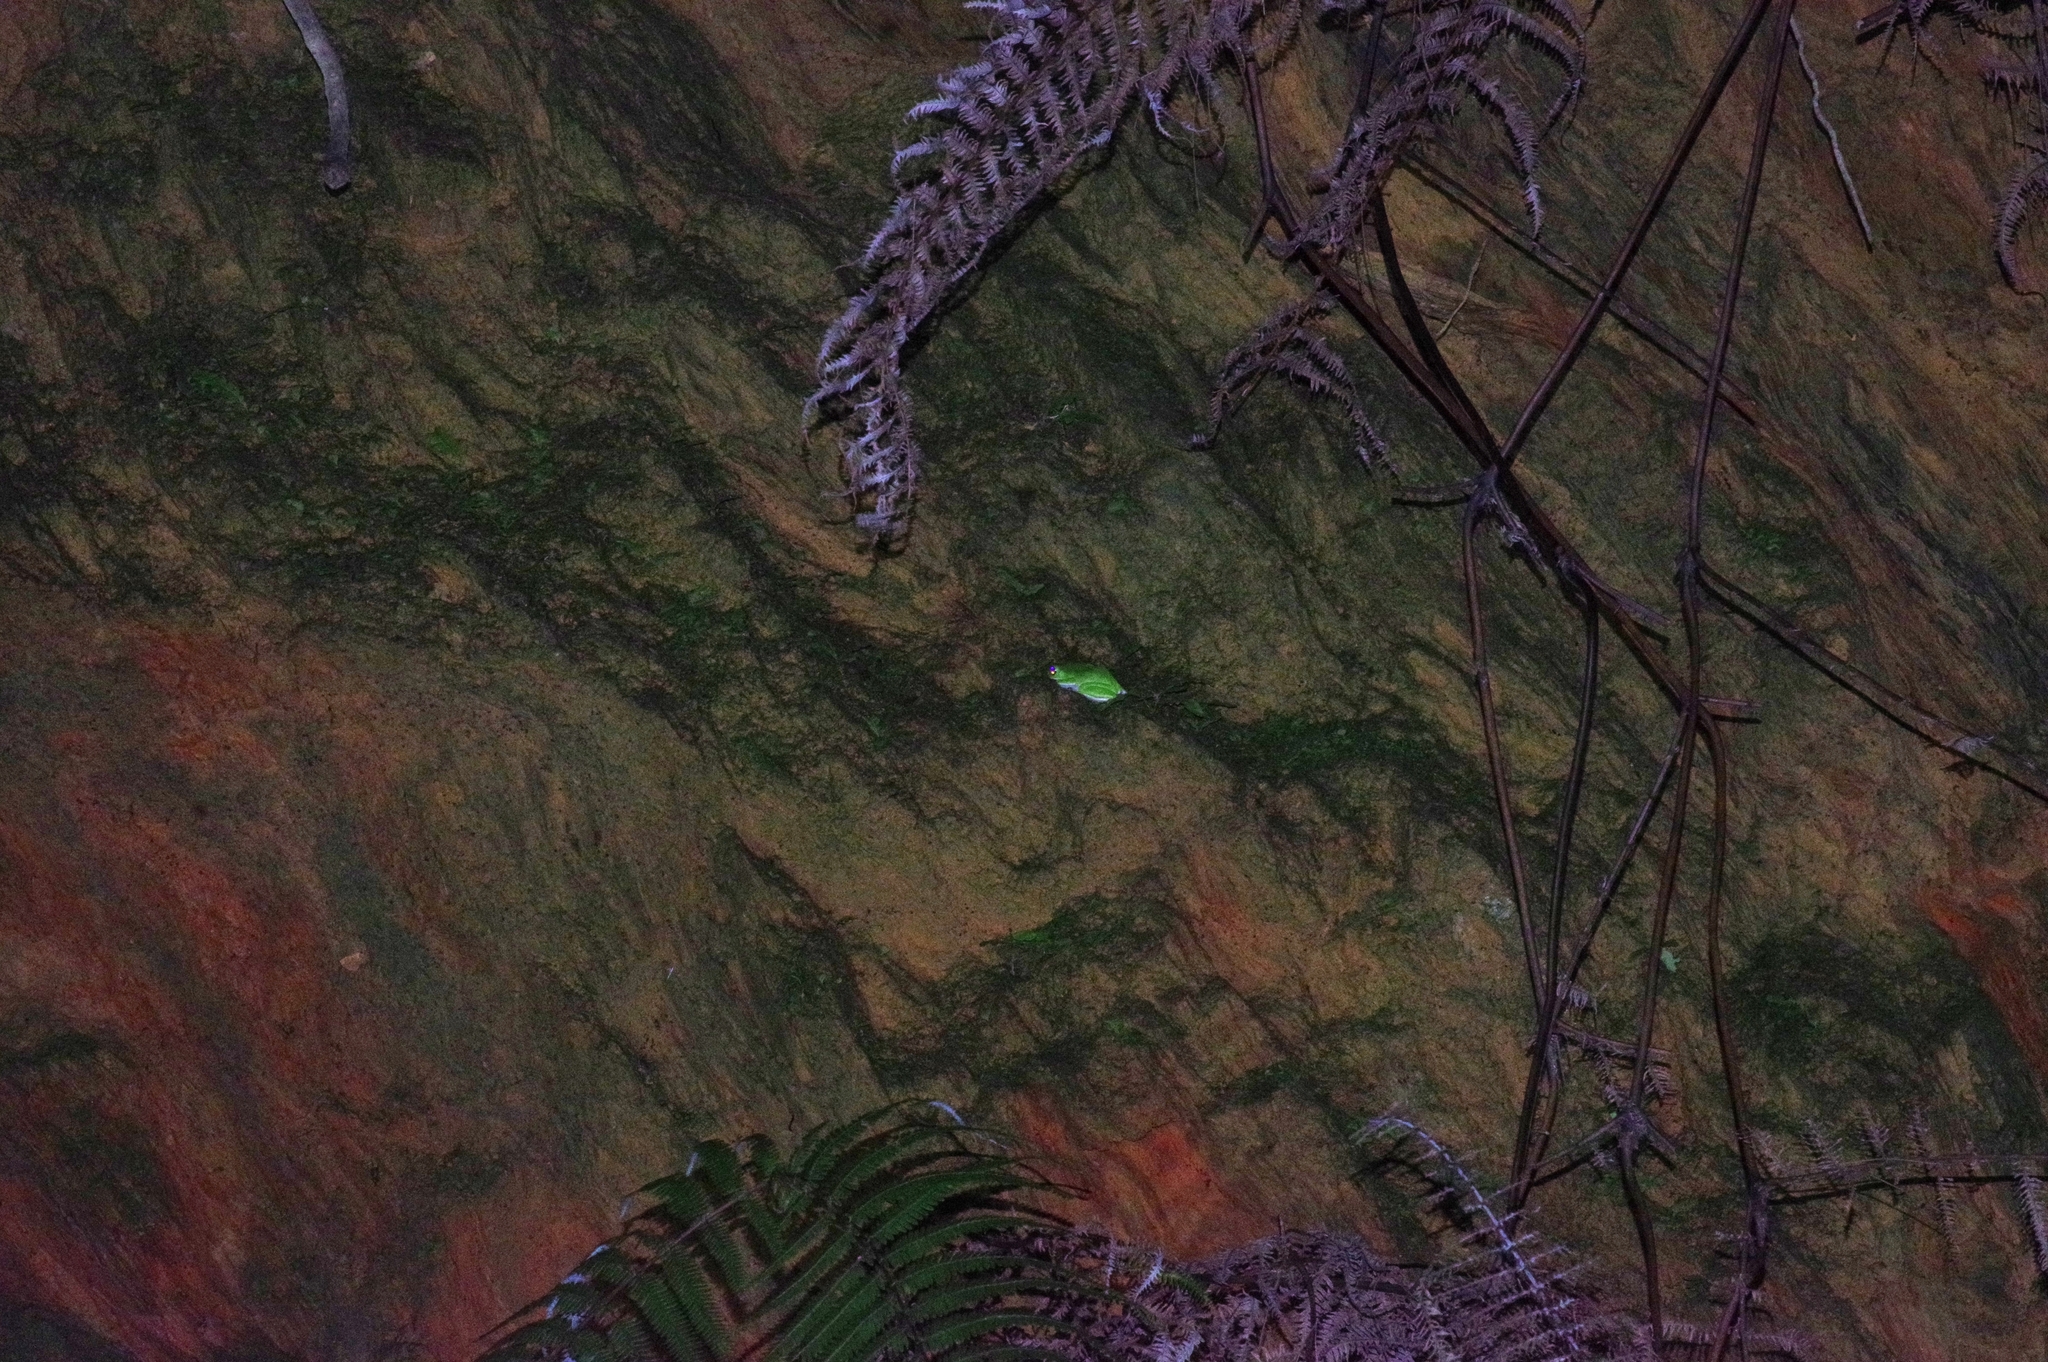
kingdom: Animalia
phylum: Chordata
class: Amphibia
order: Anura
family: Rhacophoridae
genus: Zhangixalus
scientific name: Zhangixalus viridis
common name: Green flying frog
